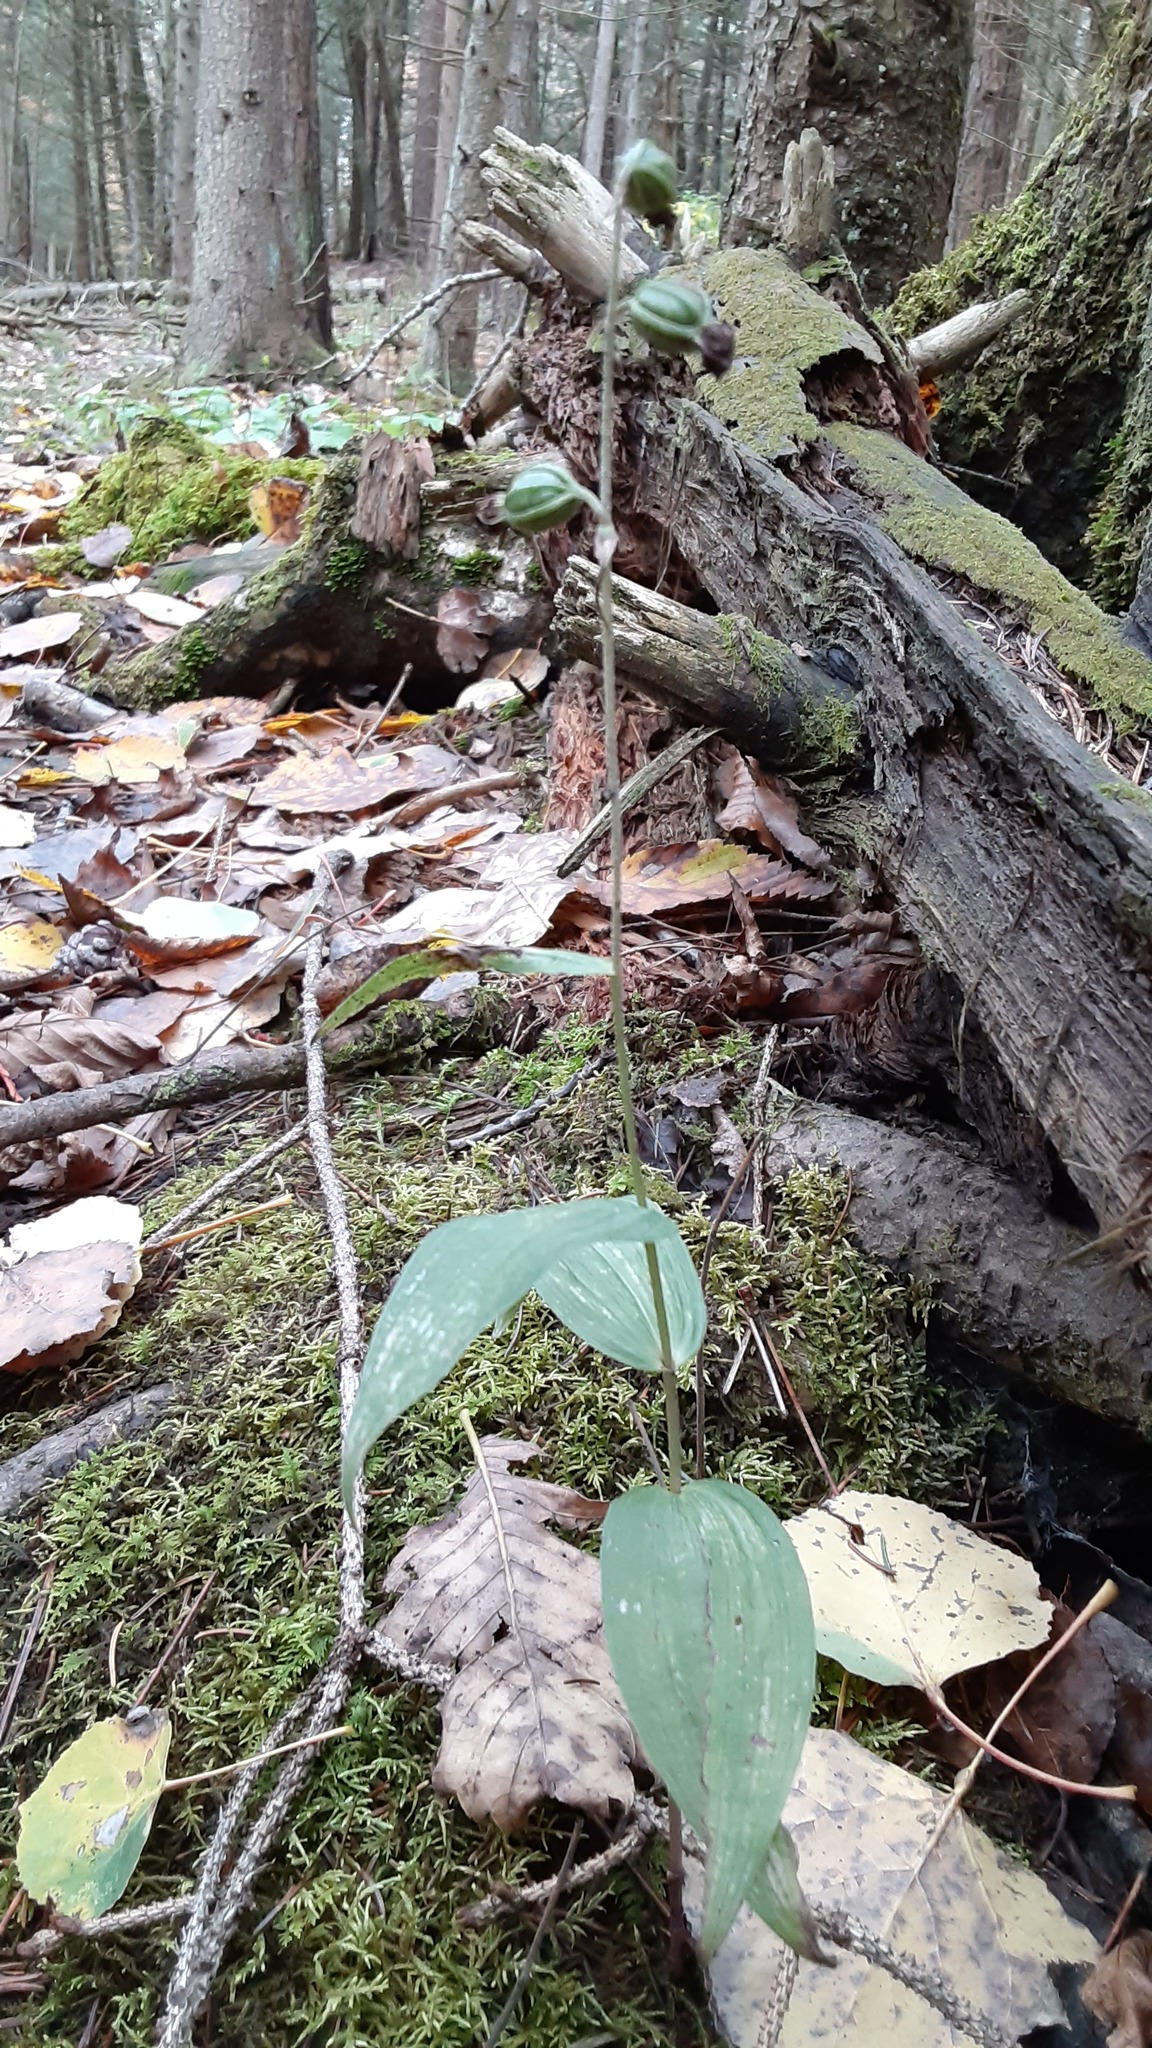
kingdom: Plantae
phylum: Tracheophyta
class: Liliopsida
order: Asparagales
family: Orchidaceae
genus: Epipactis
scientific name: Epipactis helleborine
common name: Broad-leaved helleborine
